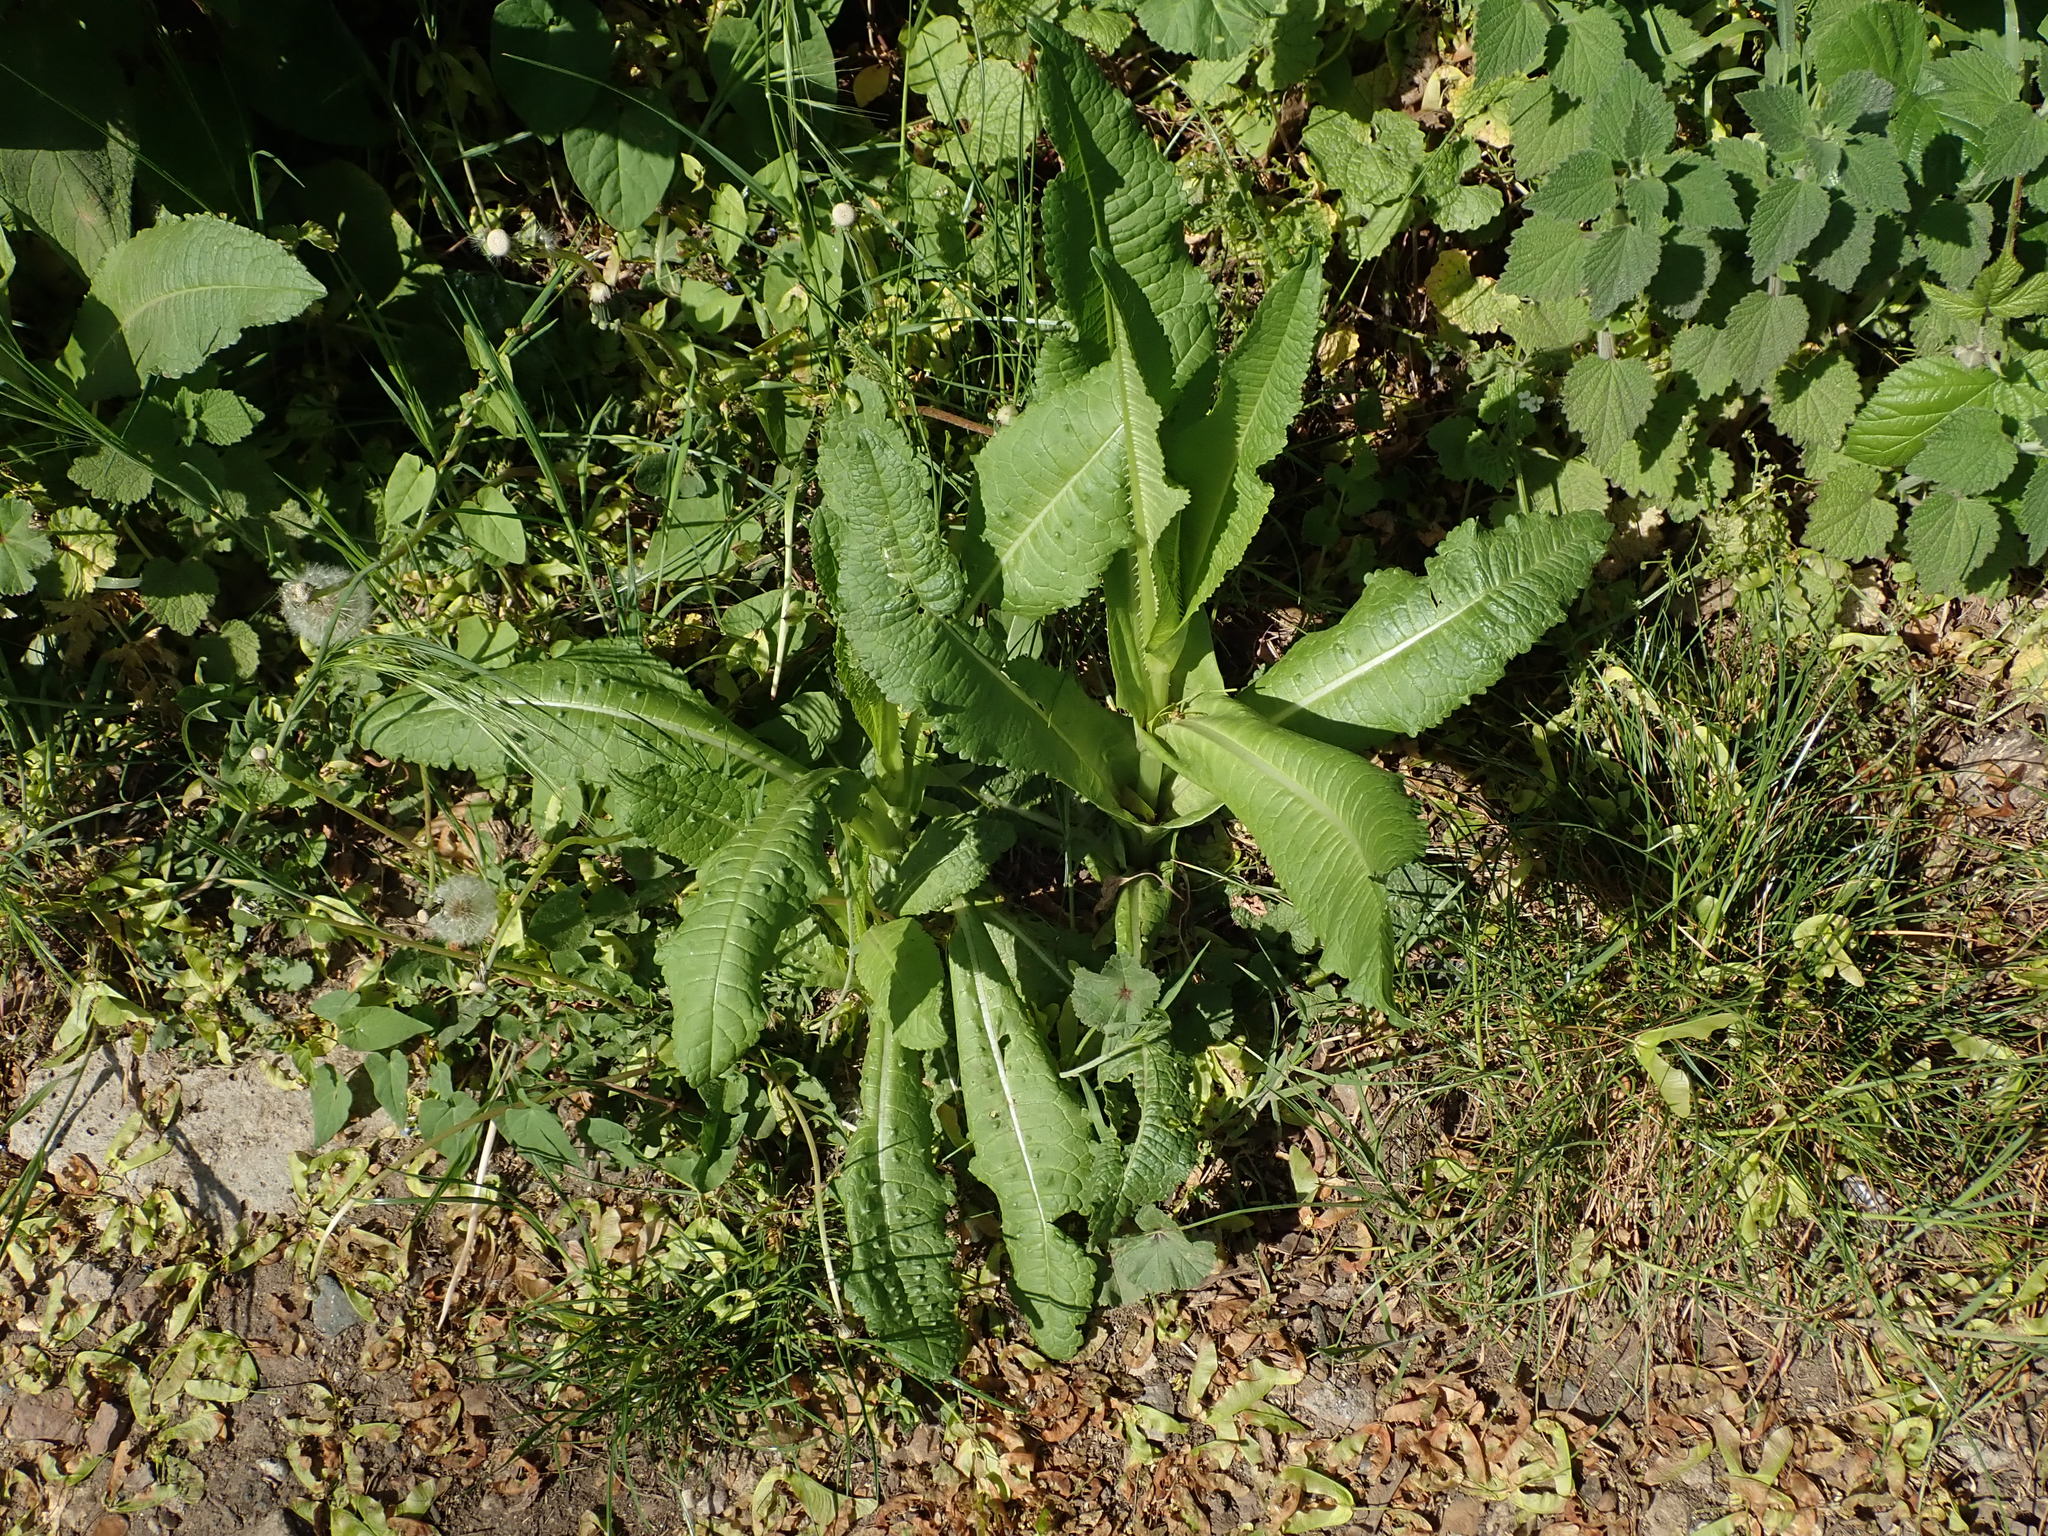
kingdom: Plantae
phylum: Tracheophyta
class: Magnoliopsida
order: Dipsacales
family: Caprifoliaceae
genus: Dipsacus
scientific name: Dipsacus fullonum
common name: Teasel
